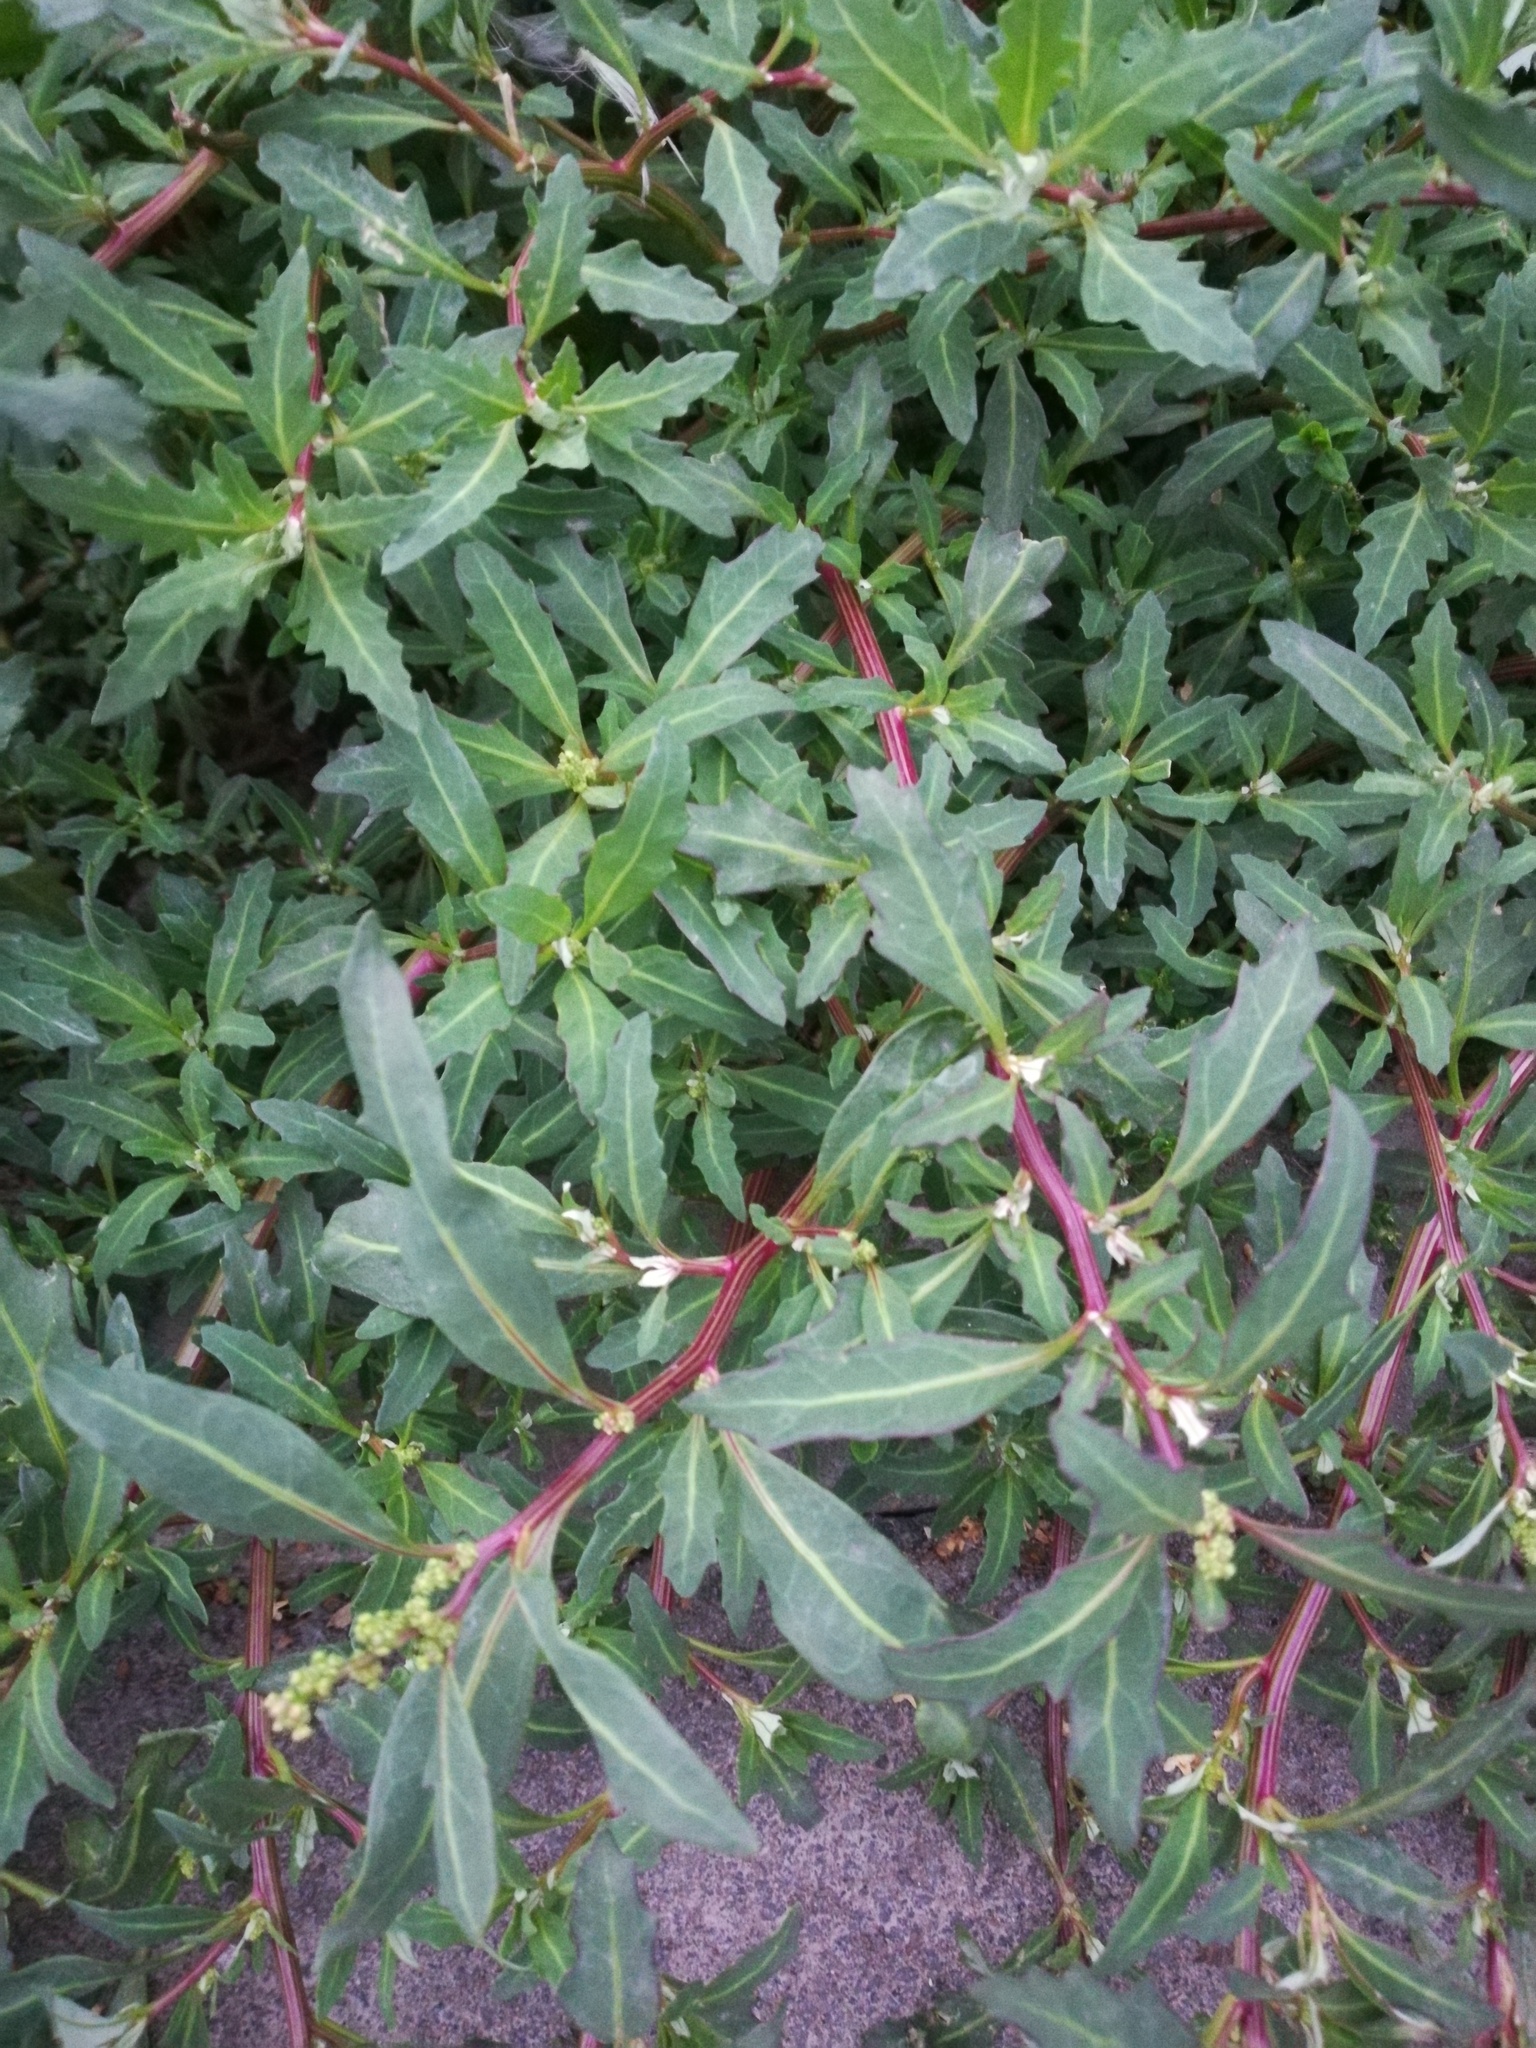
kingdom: Plantae
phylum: Tracheophyta
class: Magnoliopsida
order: Caryophyllales
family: Amaranthaceae
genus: Oxybasis
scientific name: Oxybasis glauca
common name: Glaucous goosefoot
